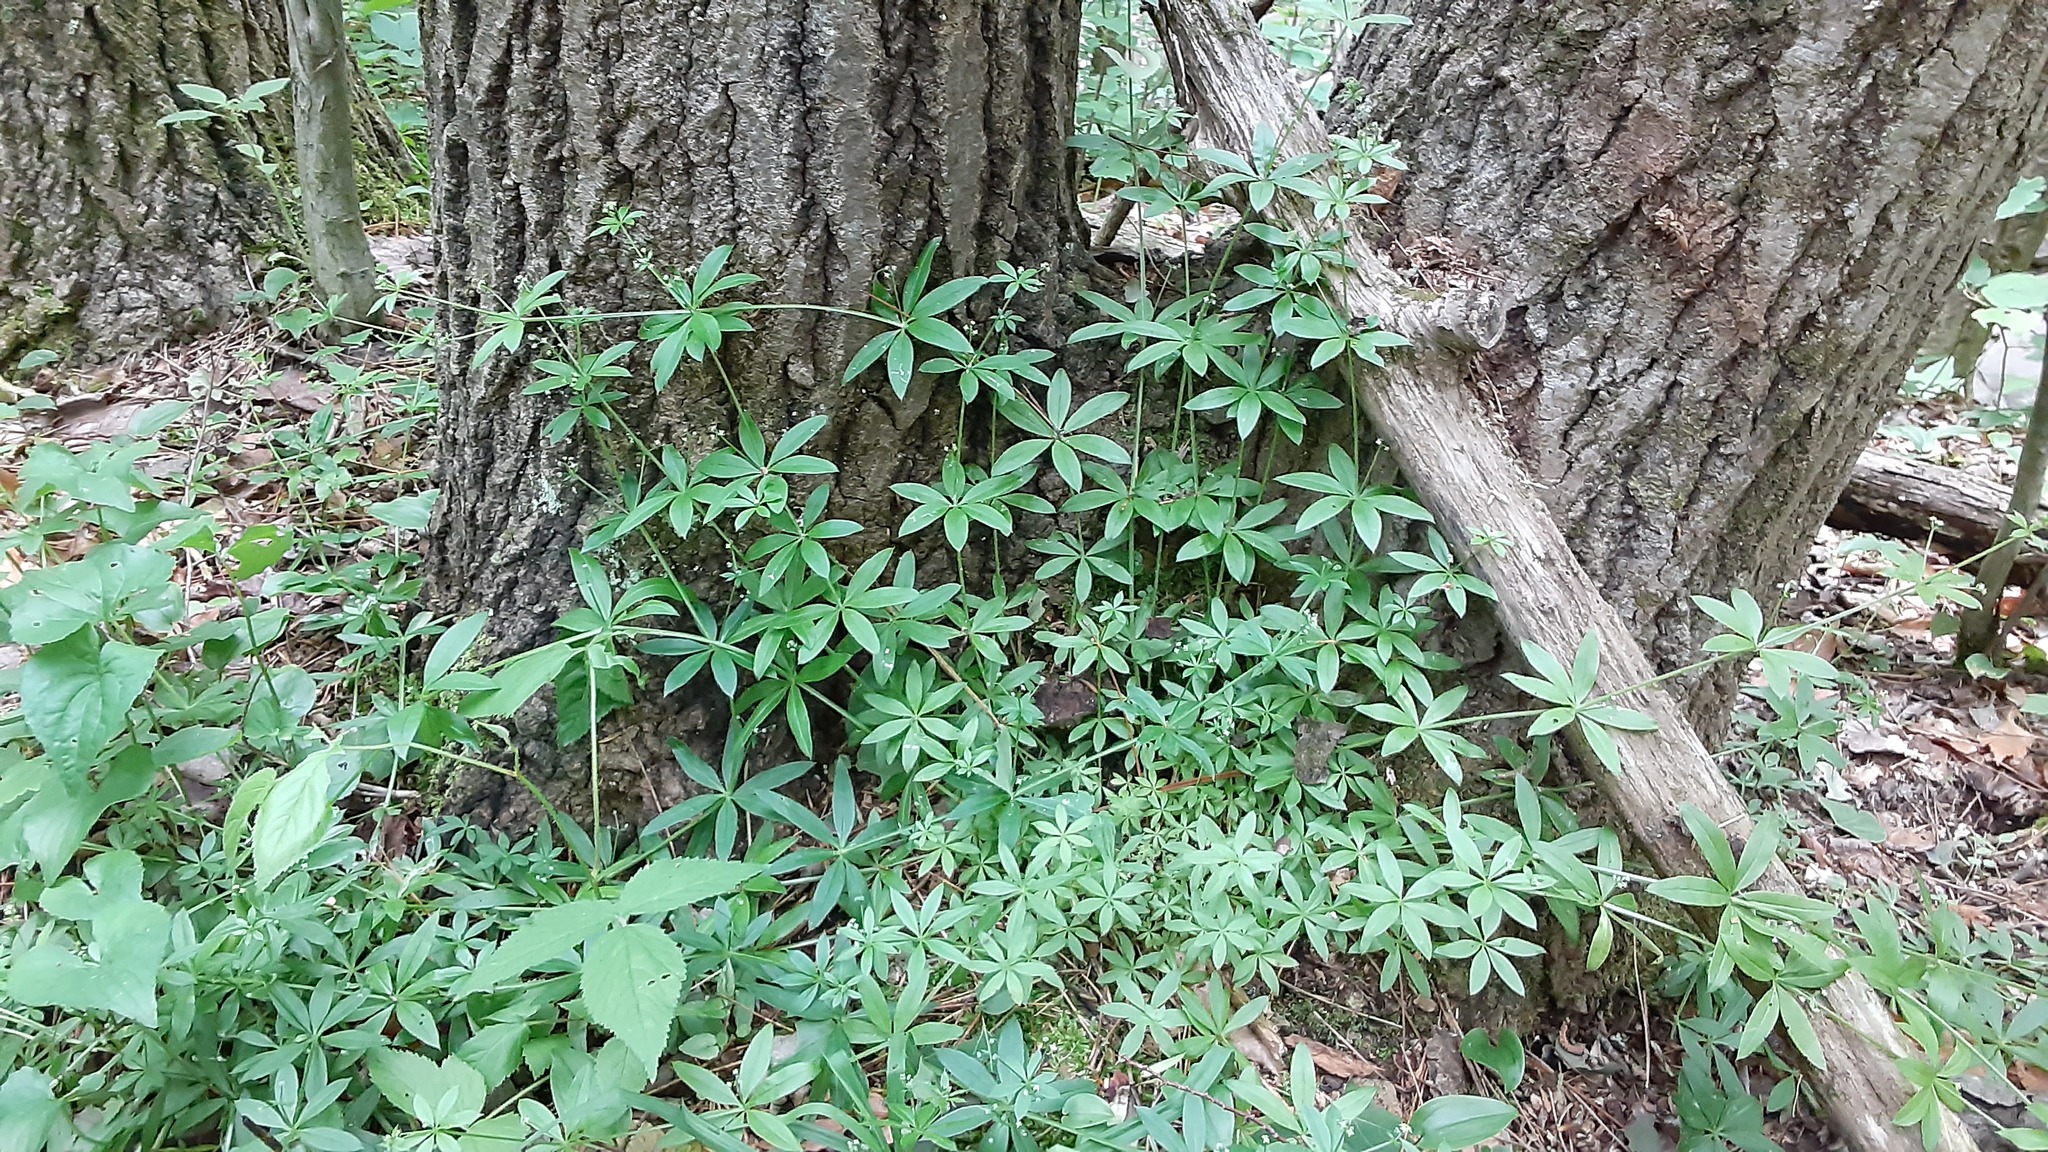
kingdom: Plantae
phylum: Tracheophyta
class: Magnoliopsida
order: Gentianales
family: Rubiaceae
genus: Galium
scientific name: Galium triflorum
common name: Fragrant bedstraw
